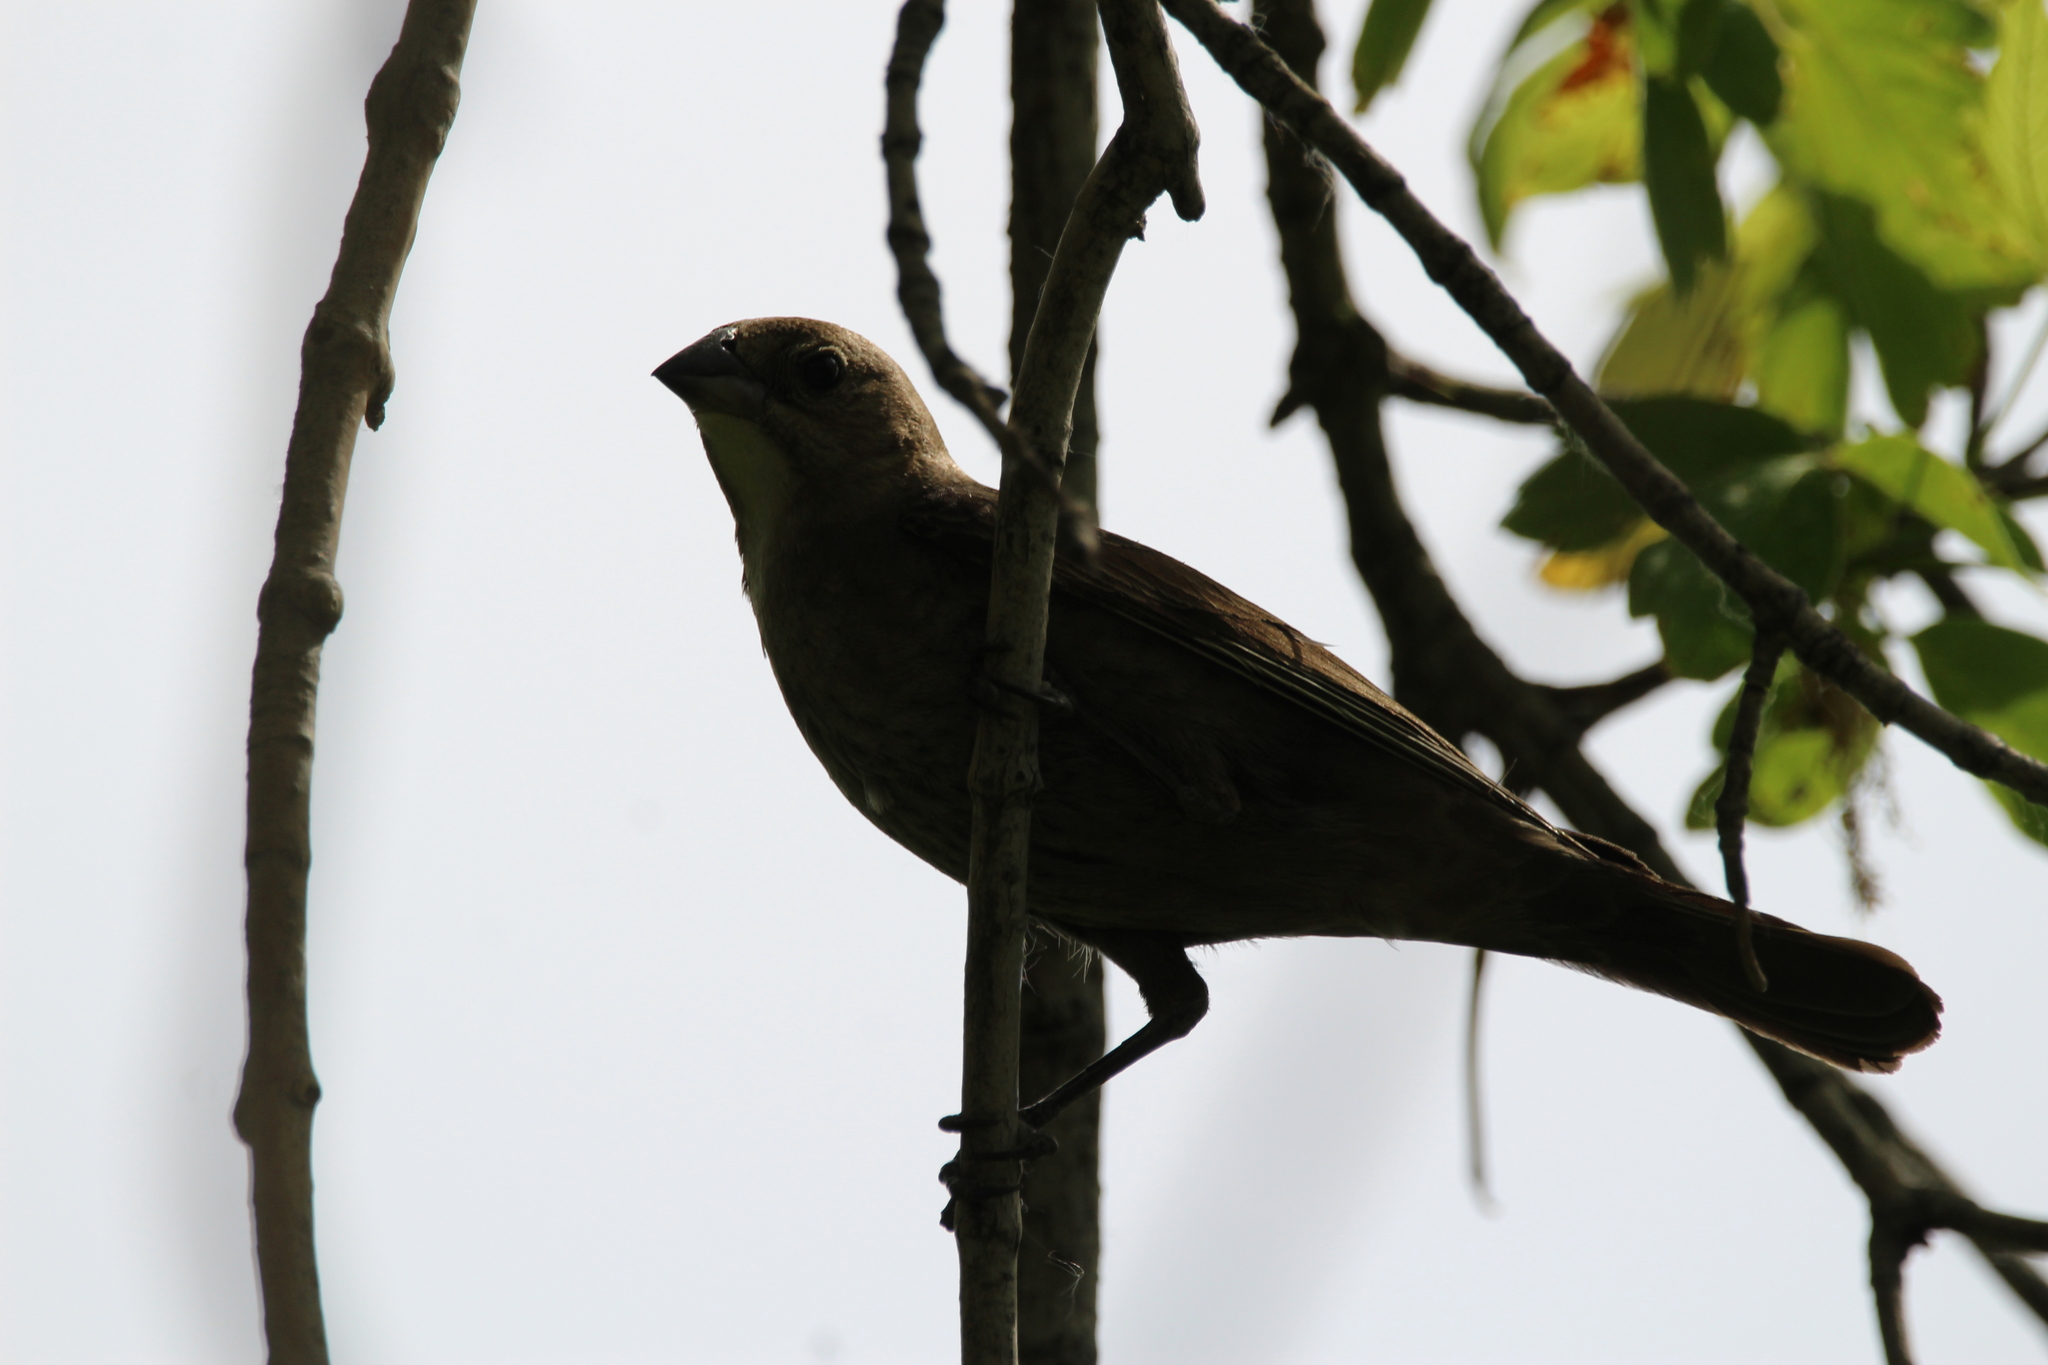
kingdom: Animalia
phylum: Chordata
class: Aves
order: Passeriformes
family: Icteridae
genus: Molothrus
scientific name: Molothrus ater
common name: Brown-headed cowbird
